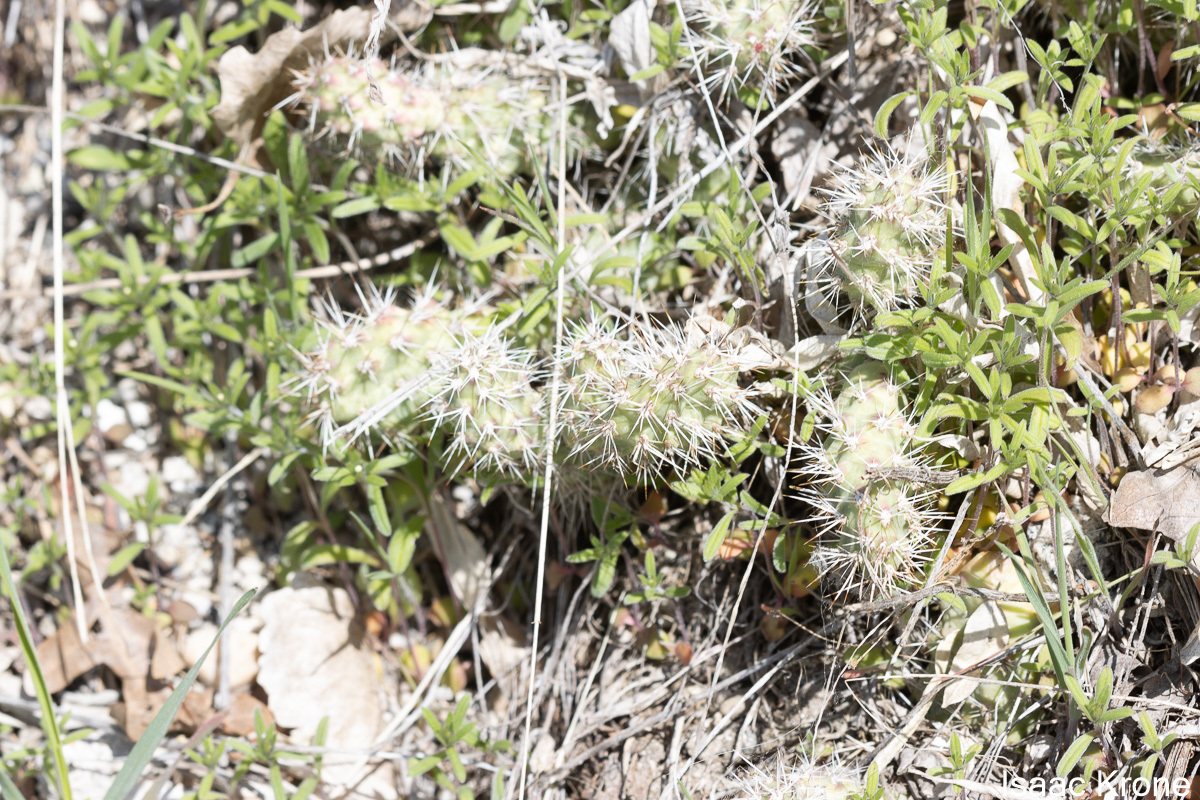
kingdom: Plantae
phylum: Tracheophyta
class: Magnoliopsida
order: Caryophyllales
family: Cactaceae
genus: Opuntia
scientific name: Opuntia fragilis
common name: Brittle cactus
